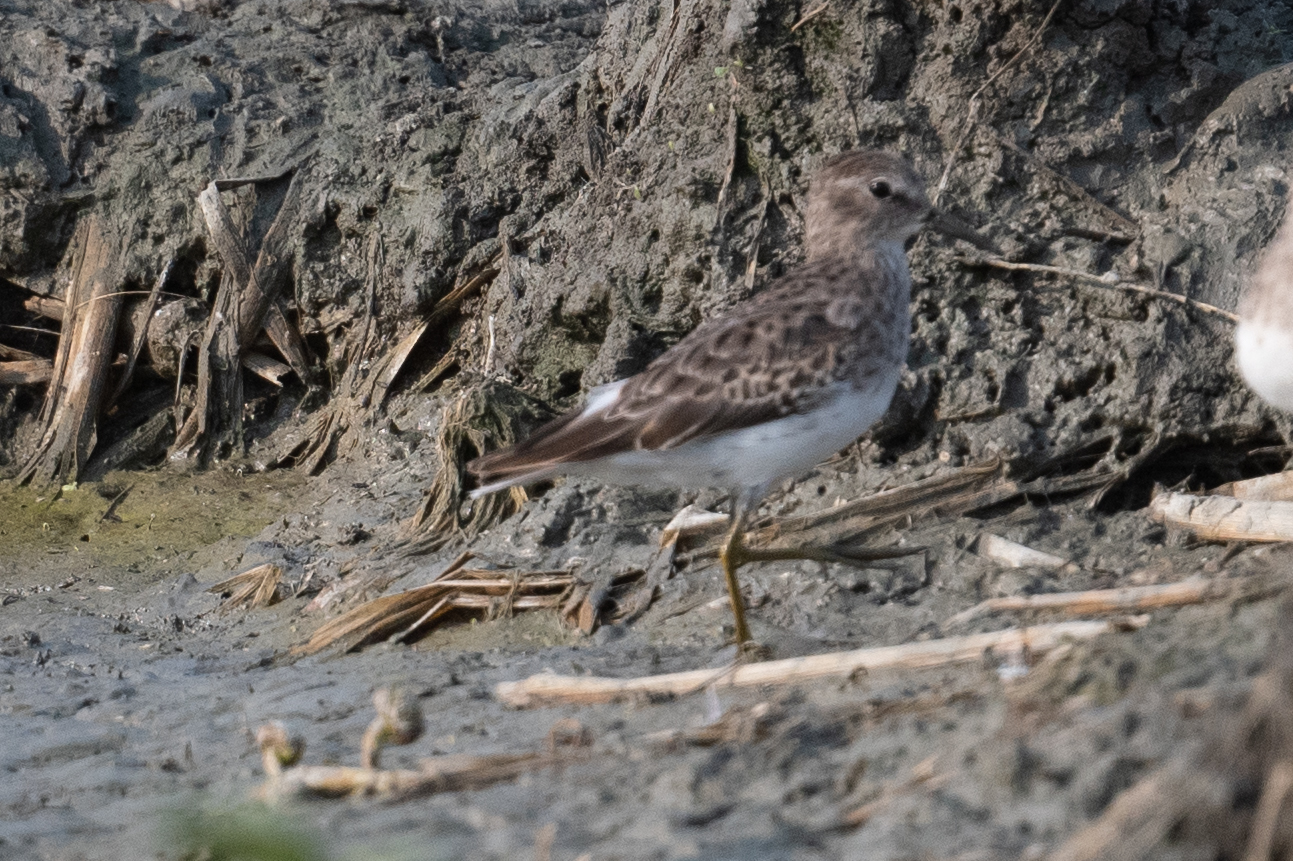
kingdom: Animalia
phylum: Chordata
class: Aves
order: Charadriiformes
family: Scolopacidae
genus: Calidris
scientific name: Calidris minutilla
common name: Least sandpiper
